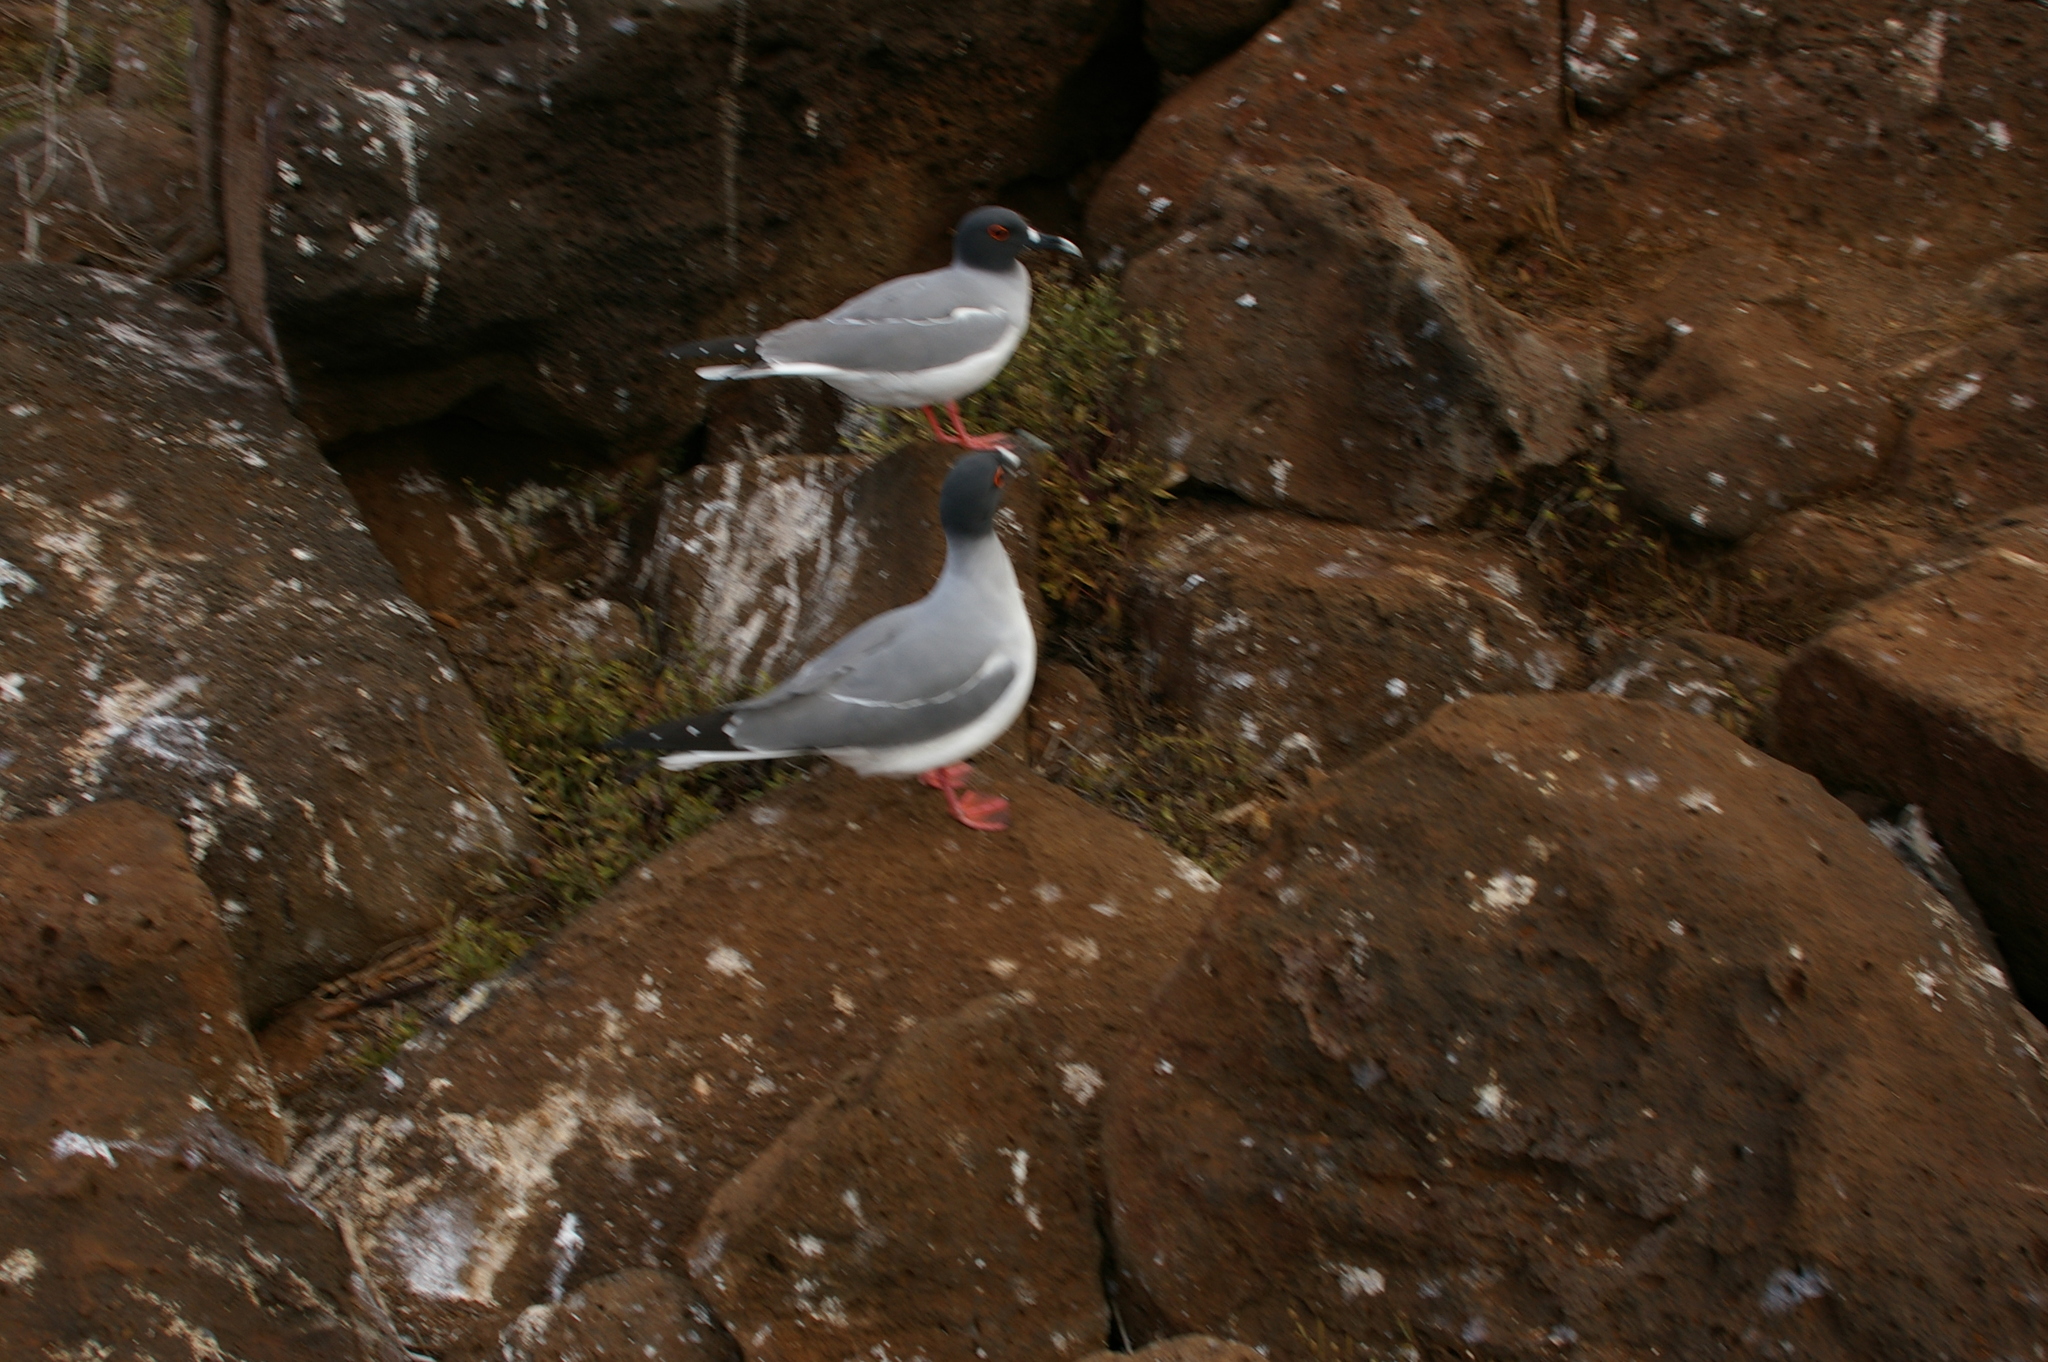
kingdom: Animalia
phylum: Chordata
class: Aves
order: Charadriiformes
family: Laridae
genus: Creagrus
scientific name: Creagrus furcatus
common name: Swallow-tailed gull
